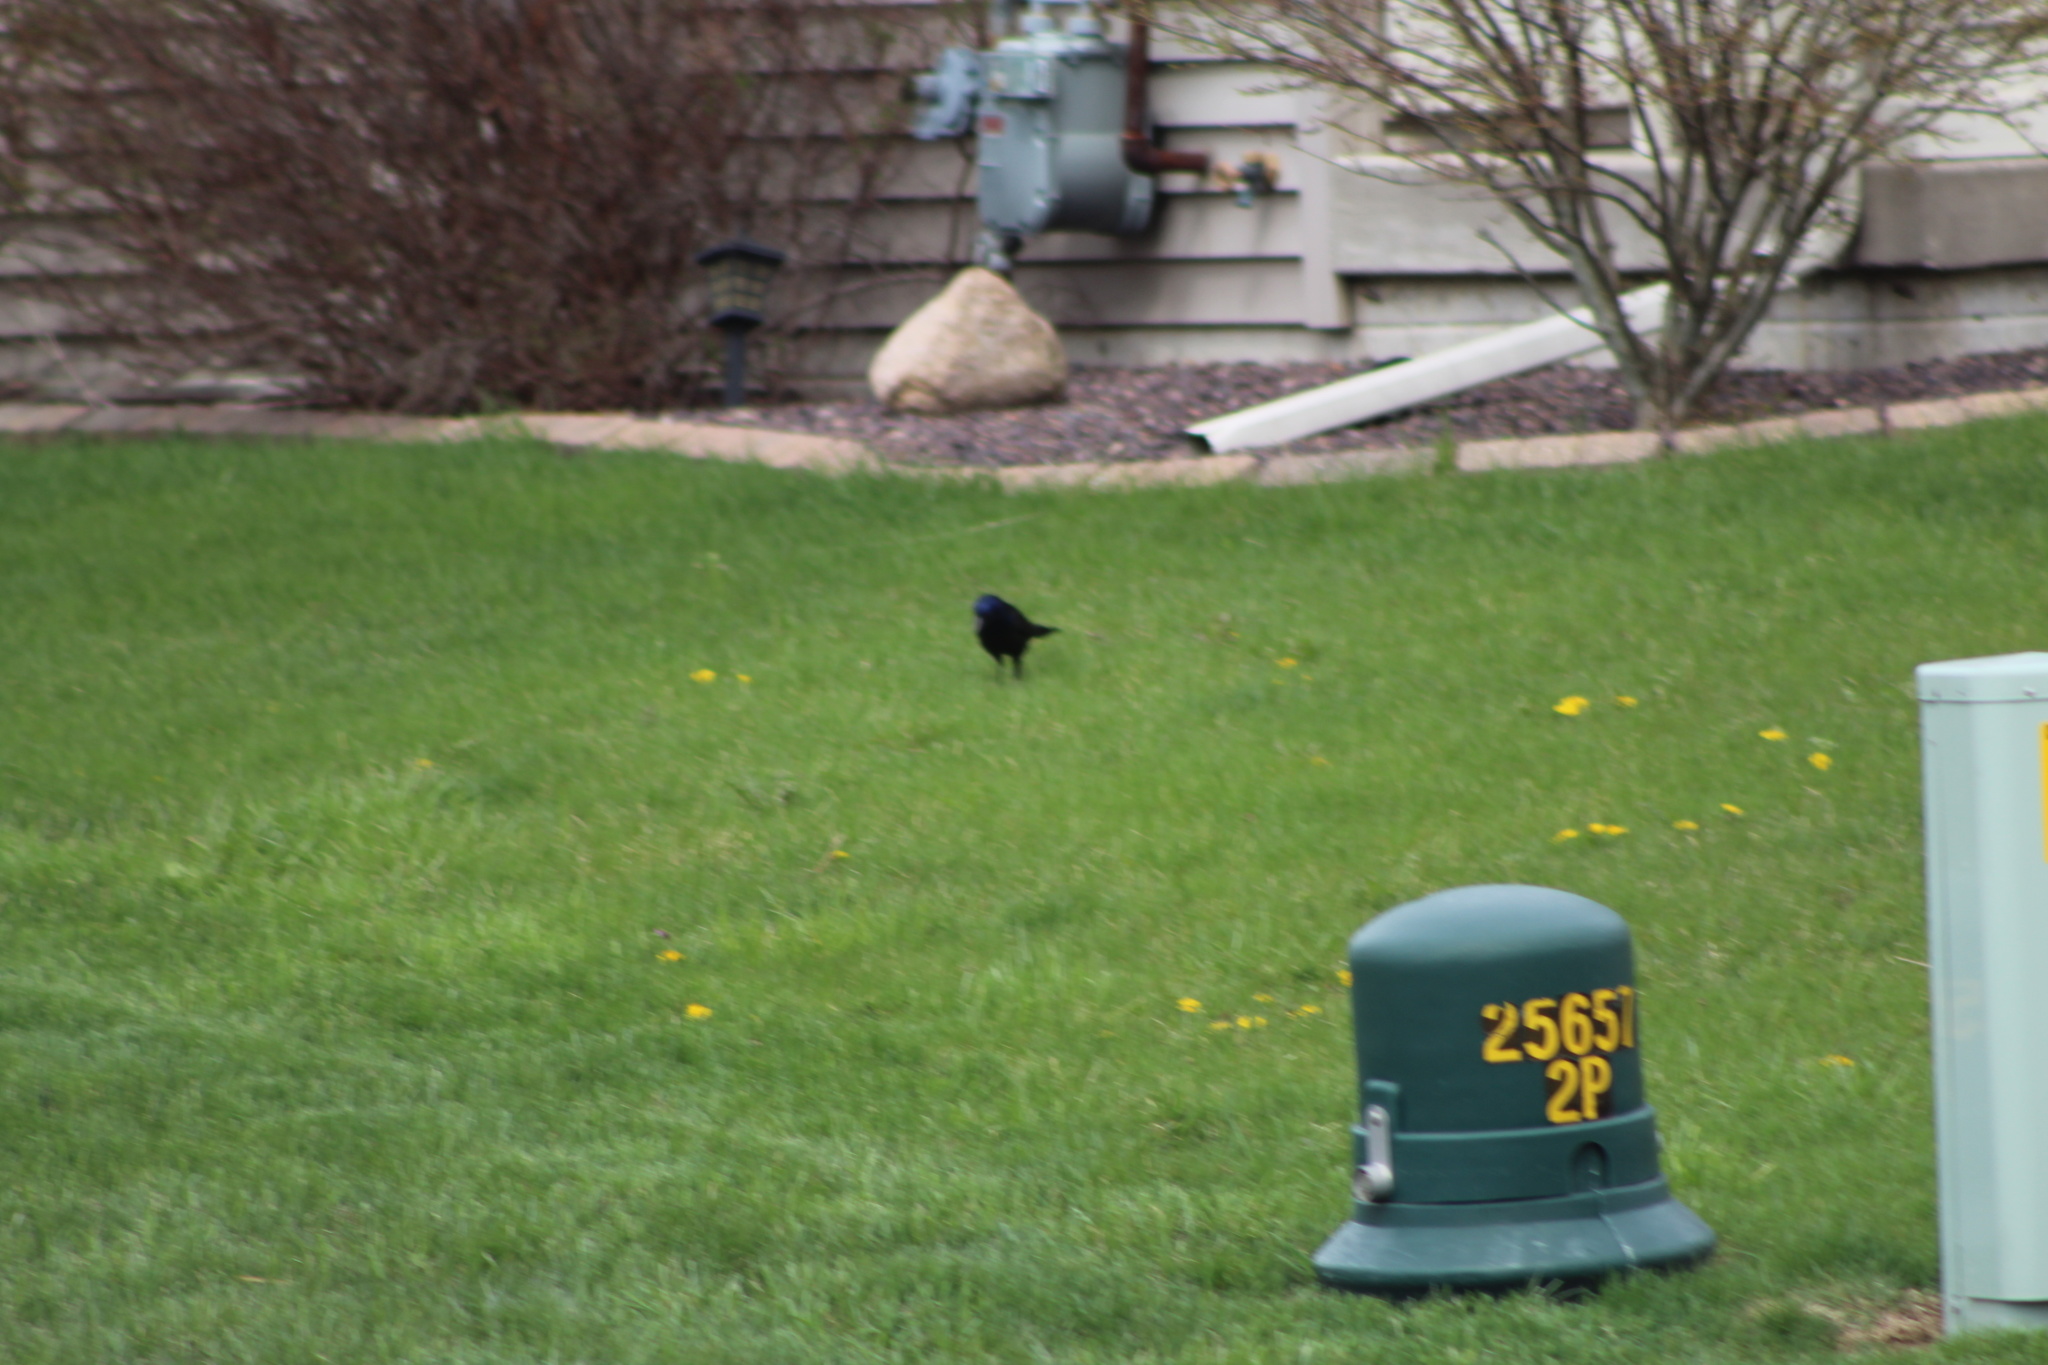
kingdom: Animalia
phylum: Chordata
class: Aves
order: Passeriformes
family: Icteridae
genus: Quiscalus
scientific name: Quiscalus quiscula
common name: Common grackle
